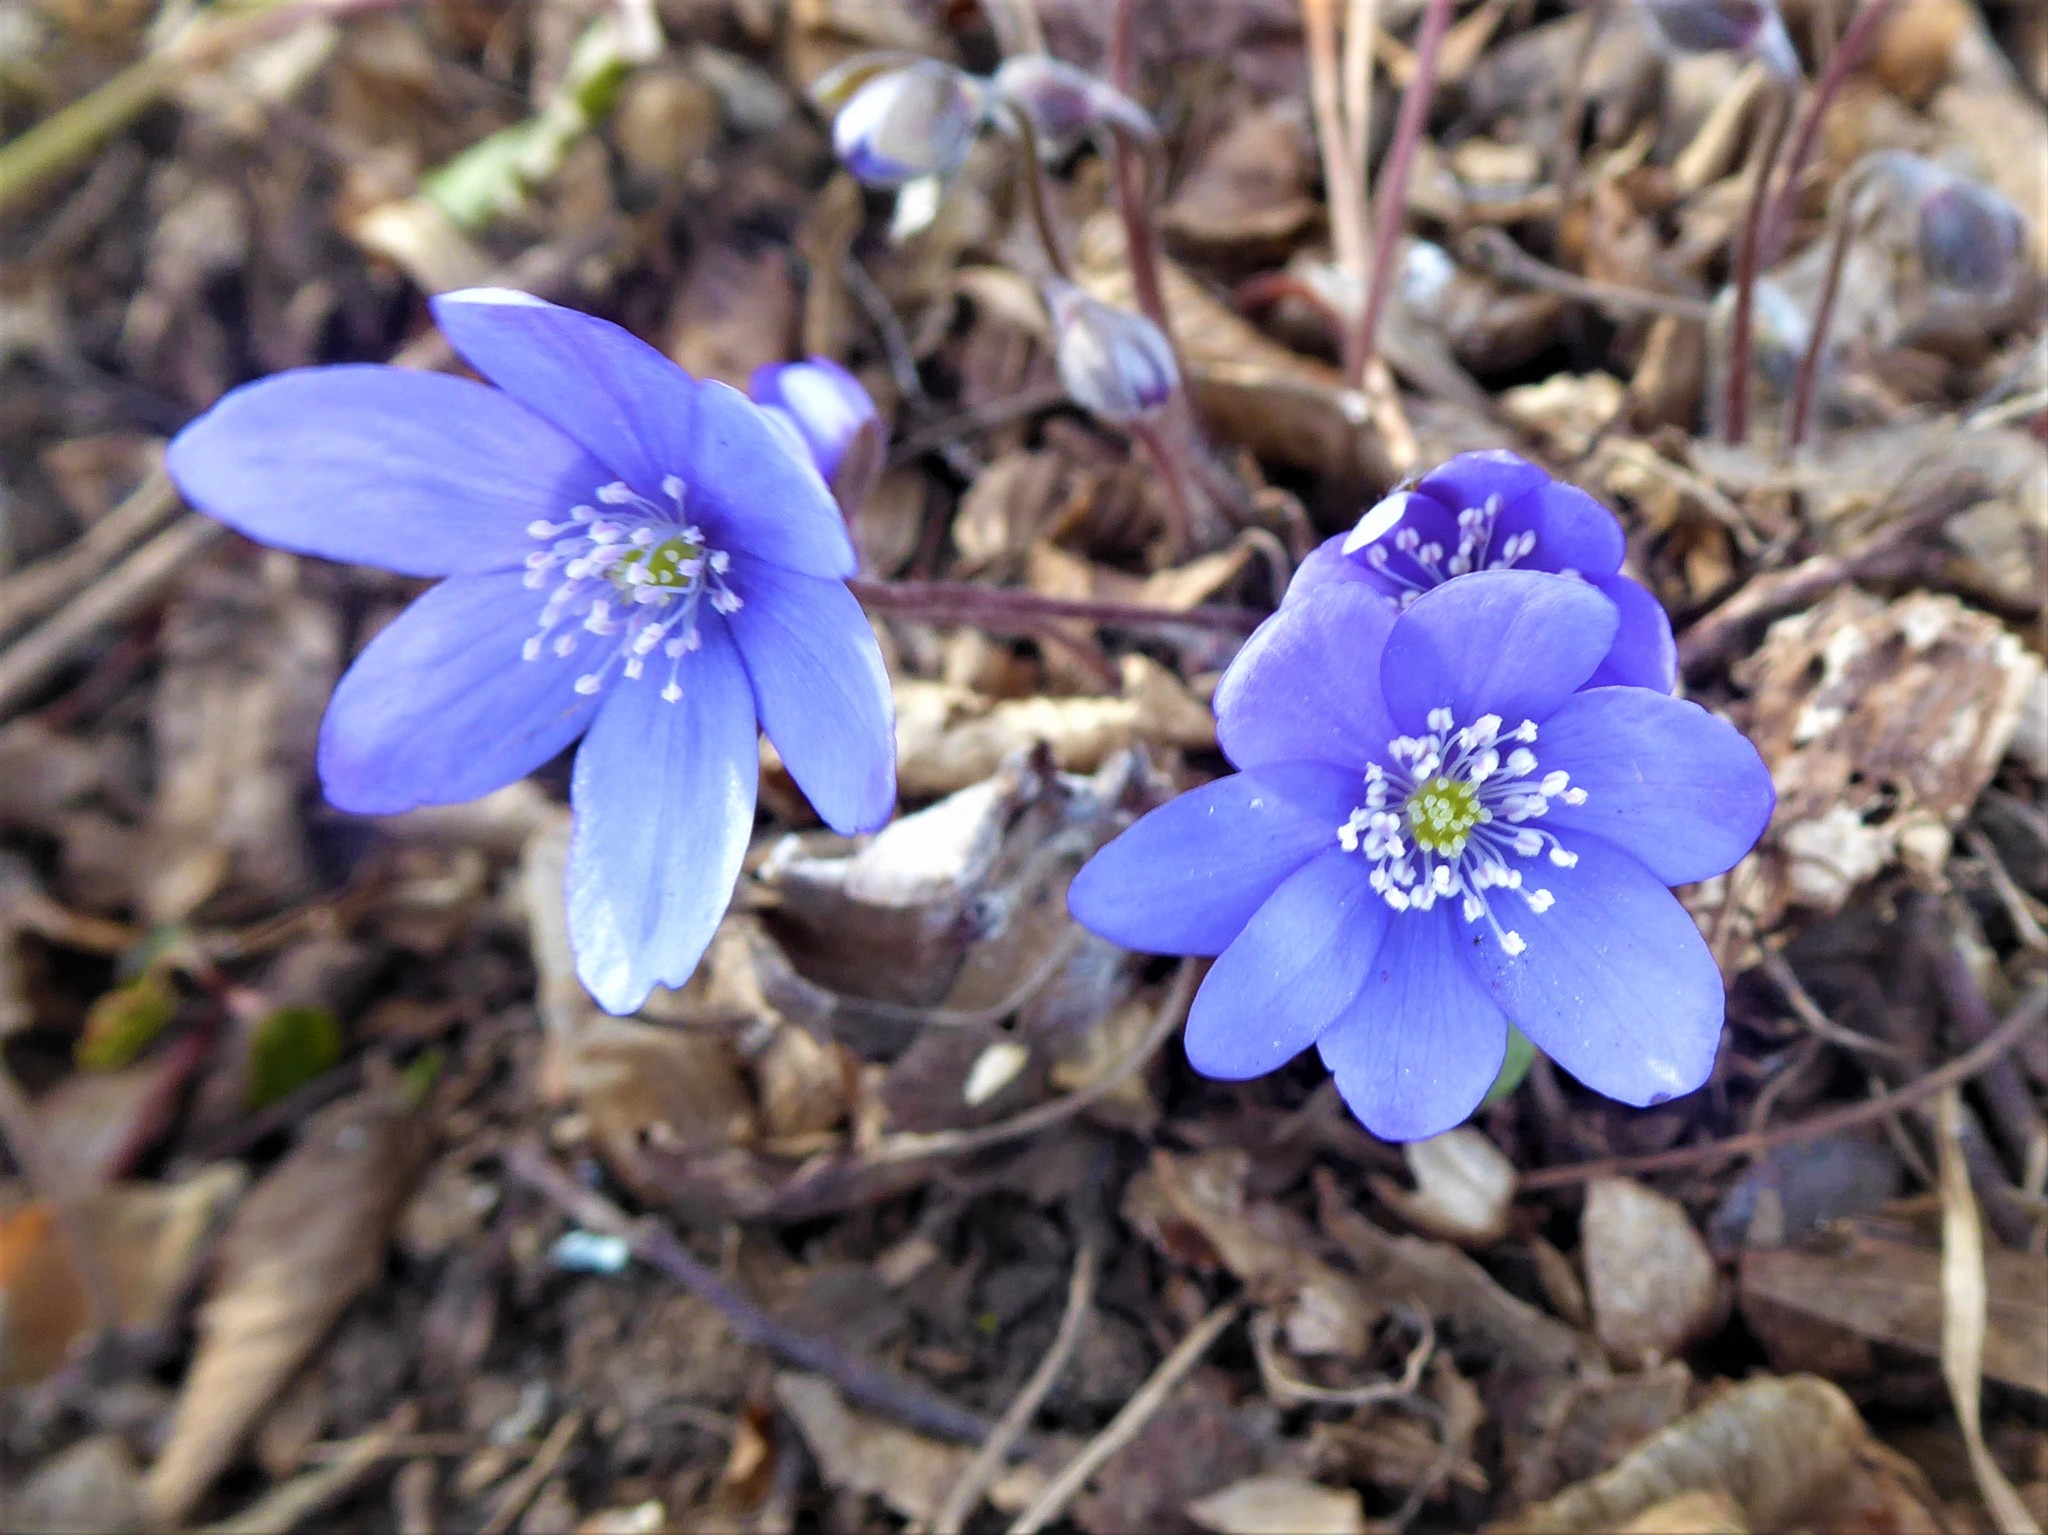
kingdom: Plantae
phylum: Tracheophyta
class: Magnoliopsida
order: Ranunculales
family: Ranunculaceae
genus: Hepatica
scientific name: Hepatica nobilis
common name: Liverleaf
